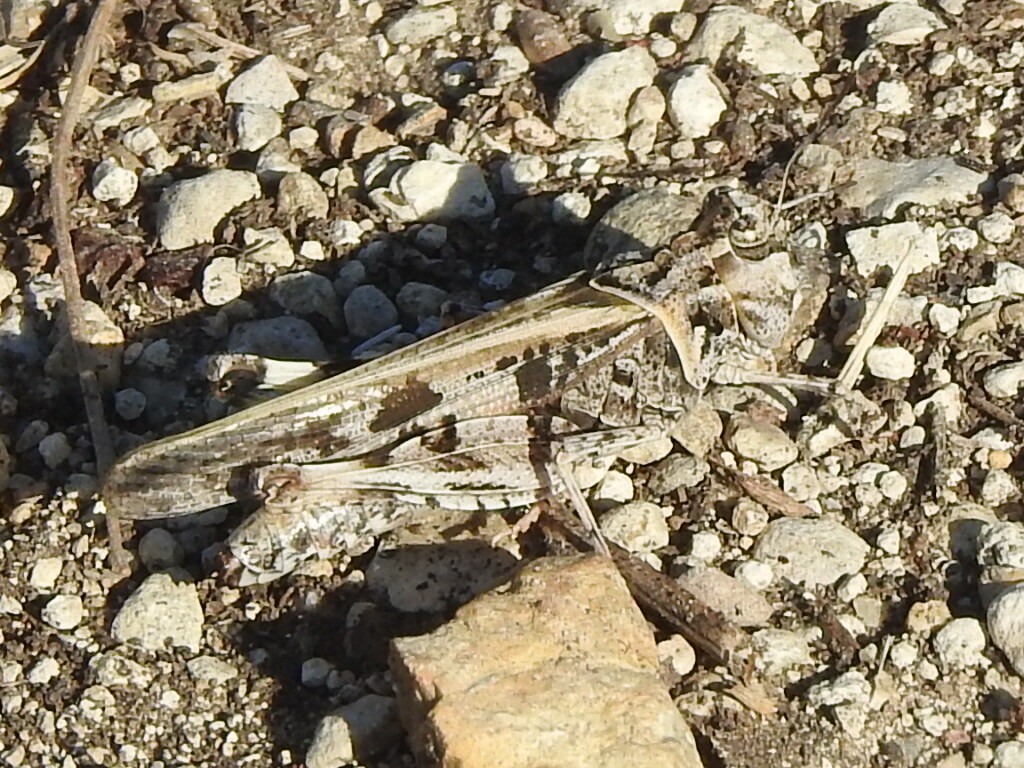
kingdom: Animalia
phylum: Arthropoda
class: Insecta
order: Orthoptera
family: Acrididae
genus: Trachyrhachys
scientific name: Trachyrhachys kiowa
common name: Kiowa grasshopper
